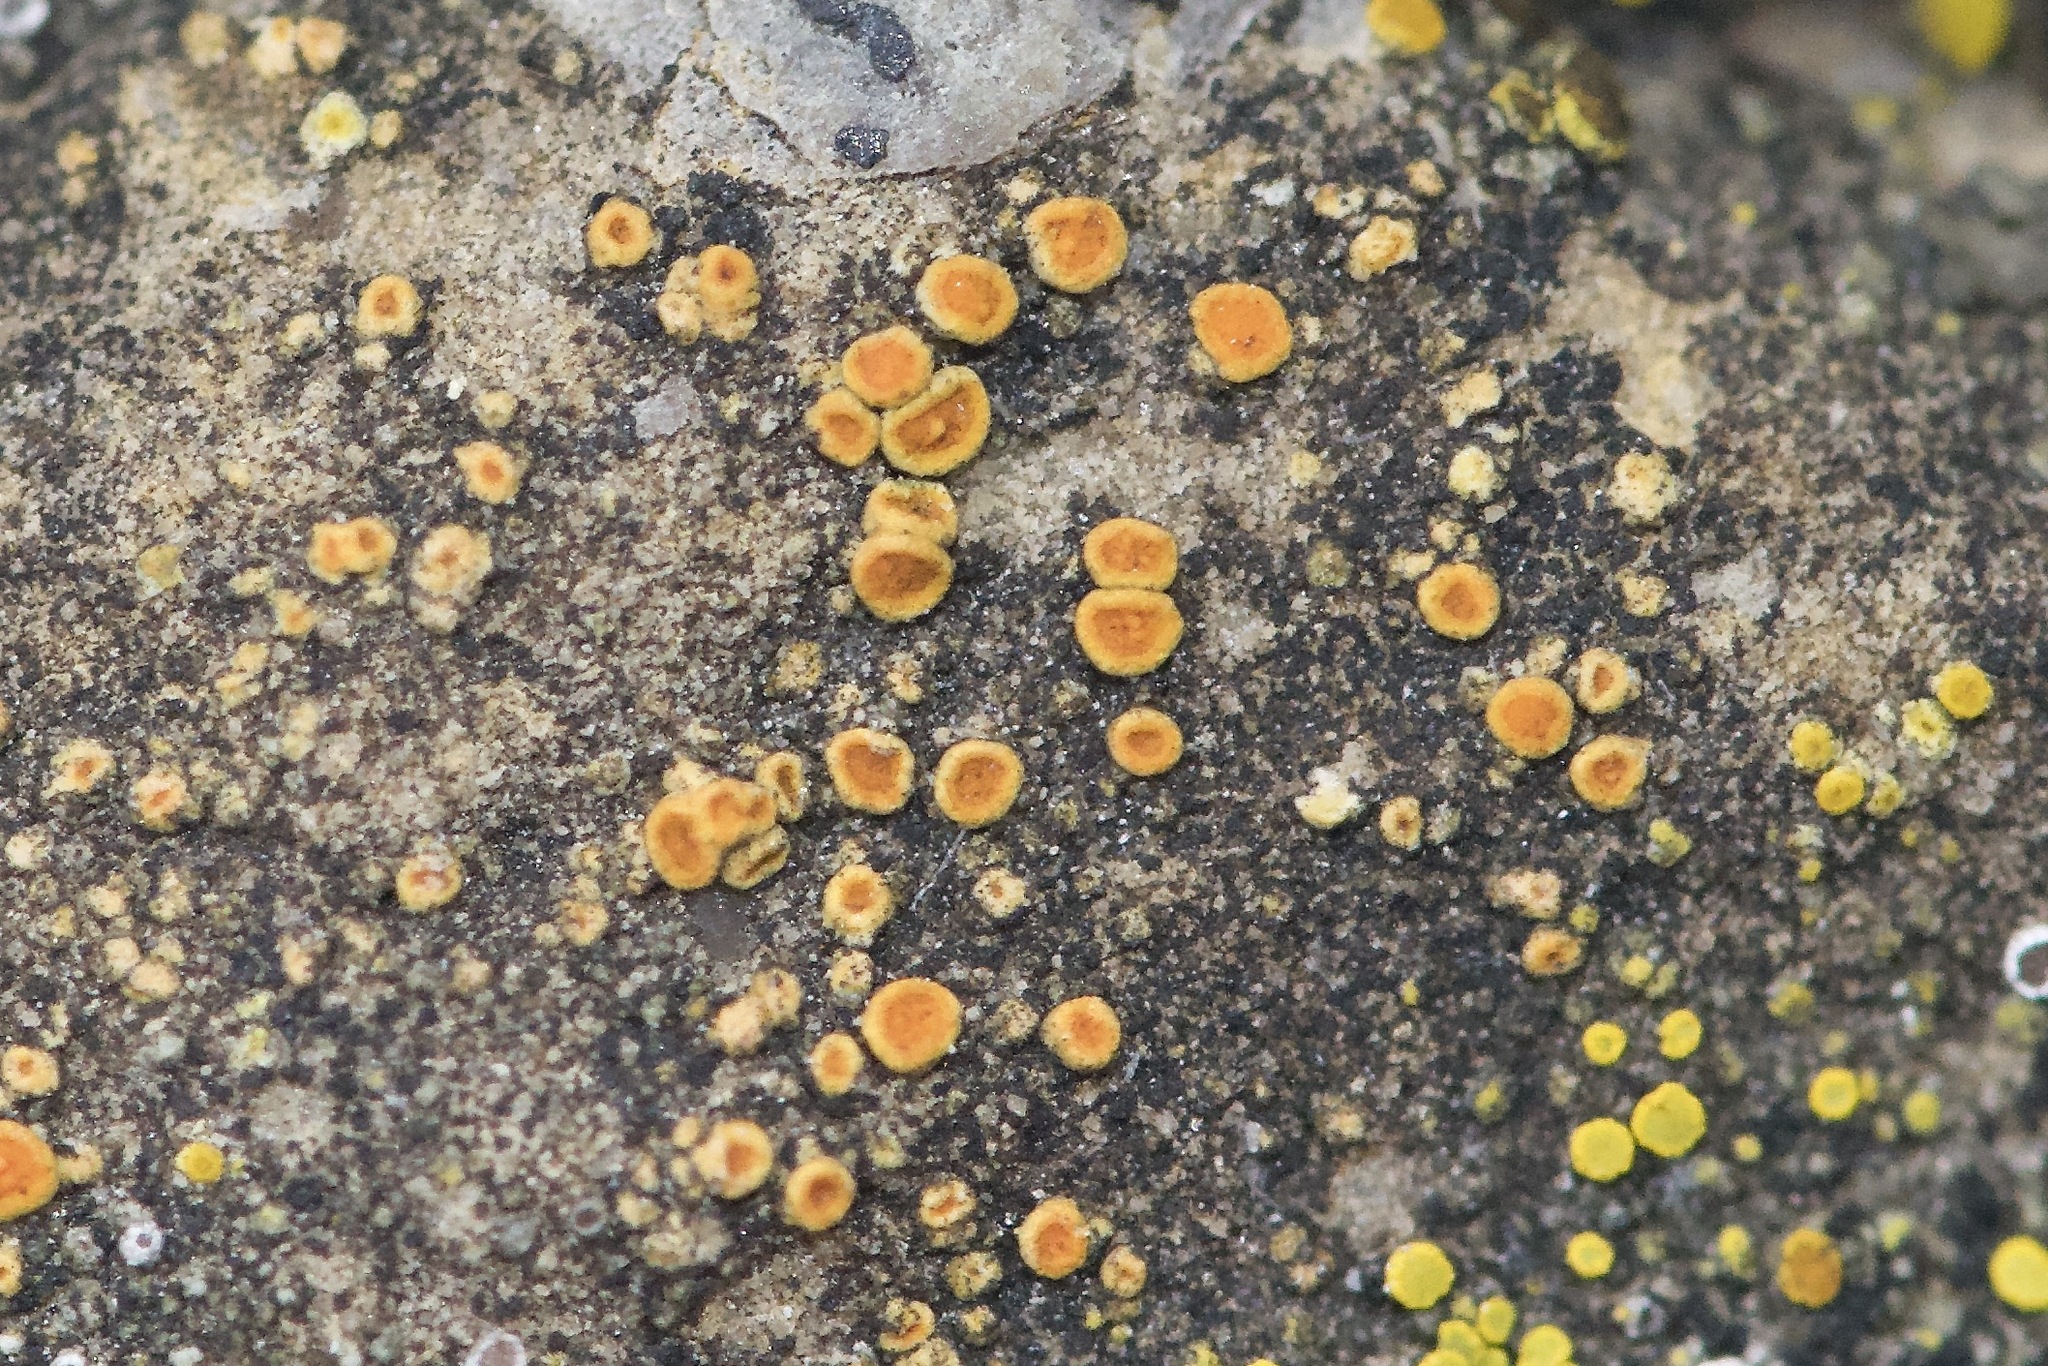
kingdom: Fungi
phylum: Ascomycota
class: Lecanoromycetes
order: Teloschistales
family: Teloschistaceae
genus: Athallia
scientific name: Athallia holocarpa
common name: Firedot lichen
